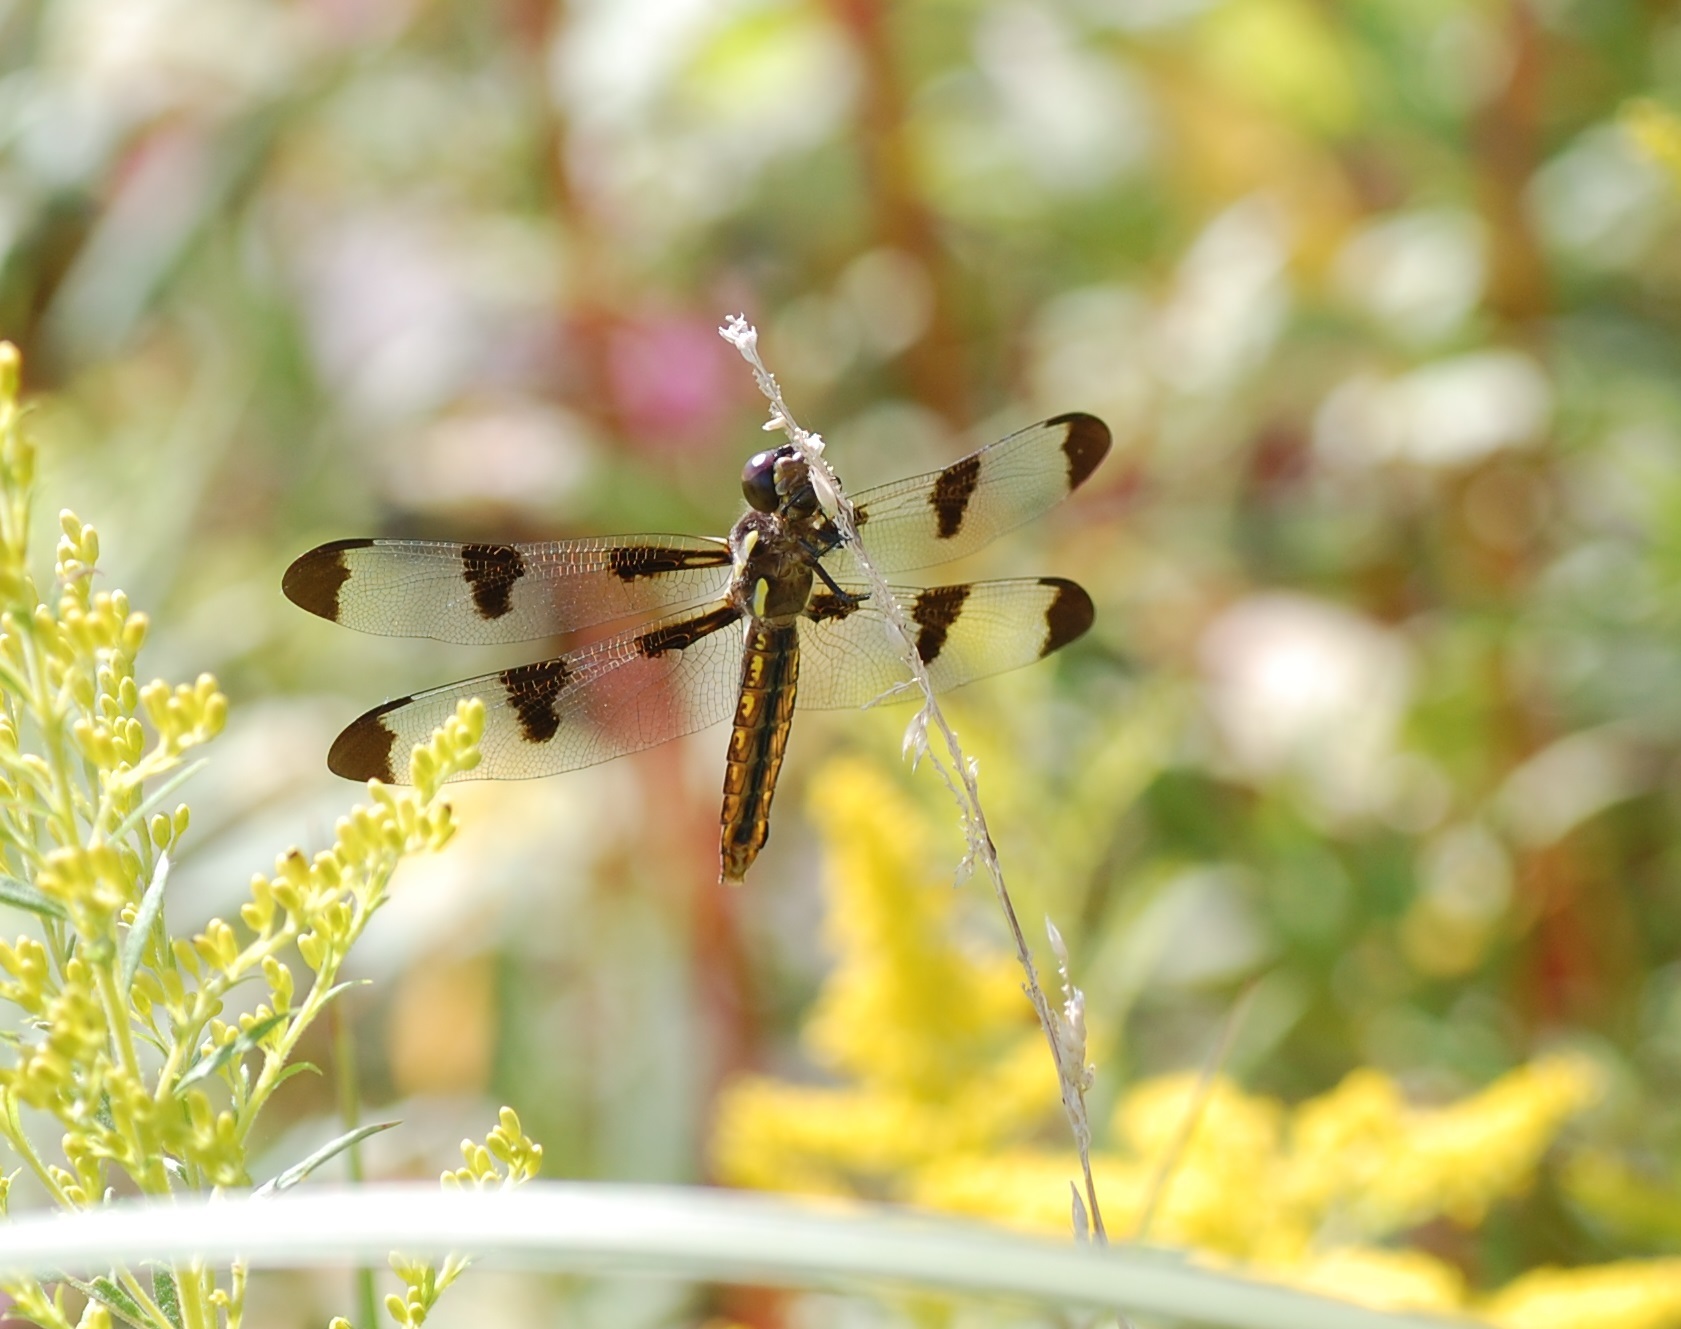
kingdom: Animalia
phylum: Arthropoda
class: Insecta
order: Odonata
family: Libellulidae
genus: Libellula
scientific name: Libellula pulchella
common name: Twelve-spotted skimmer
